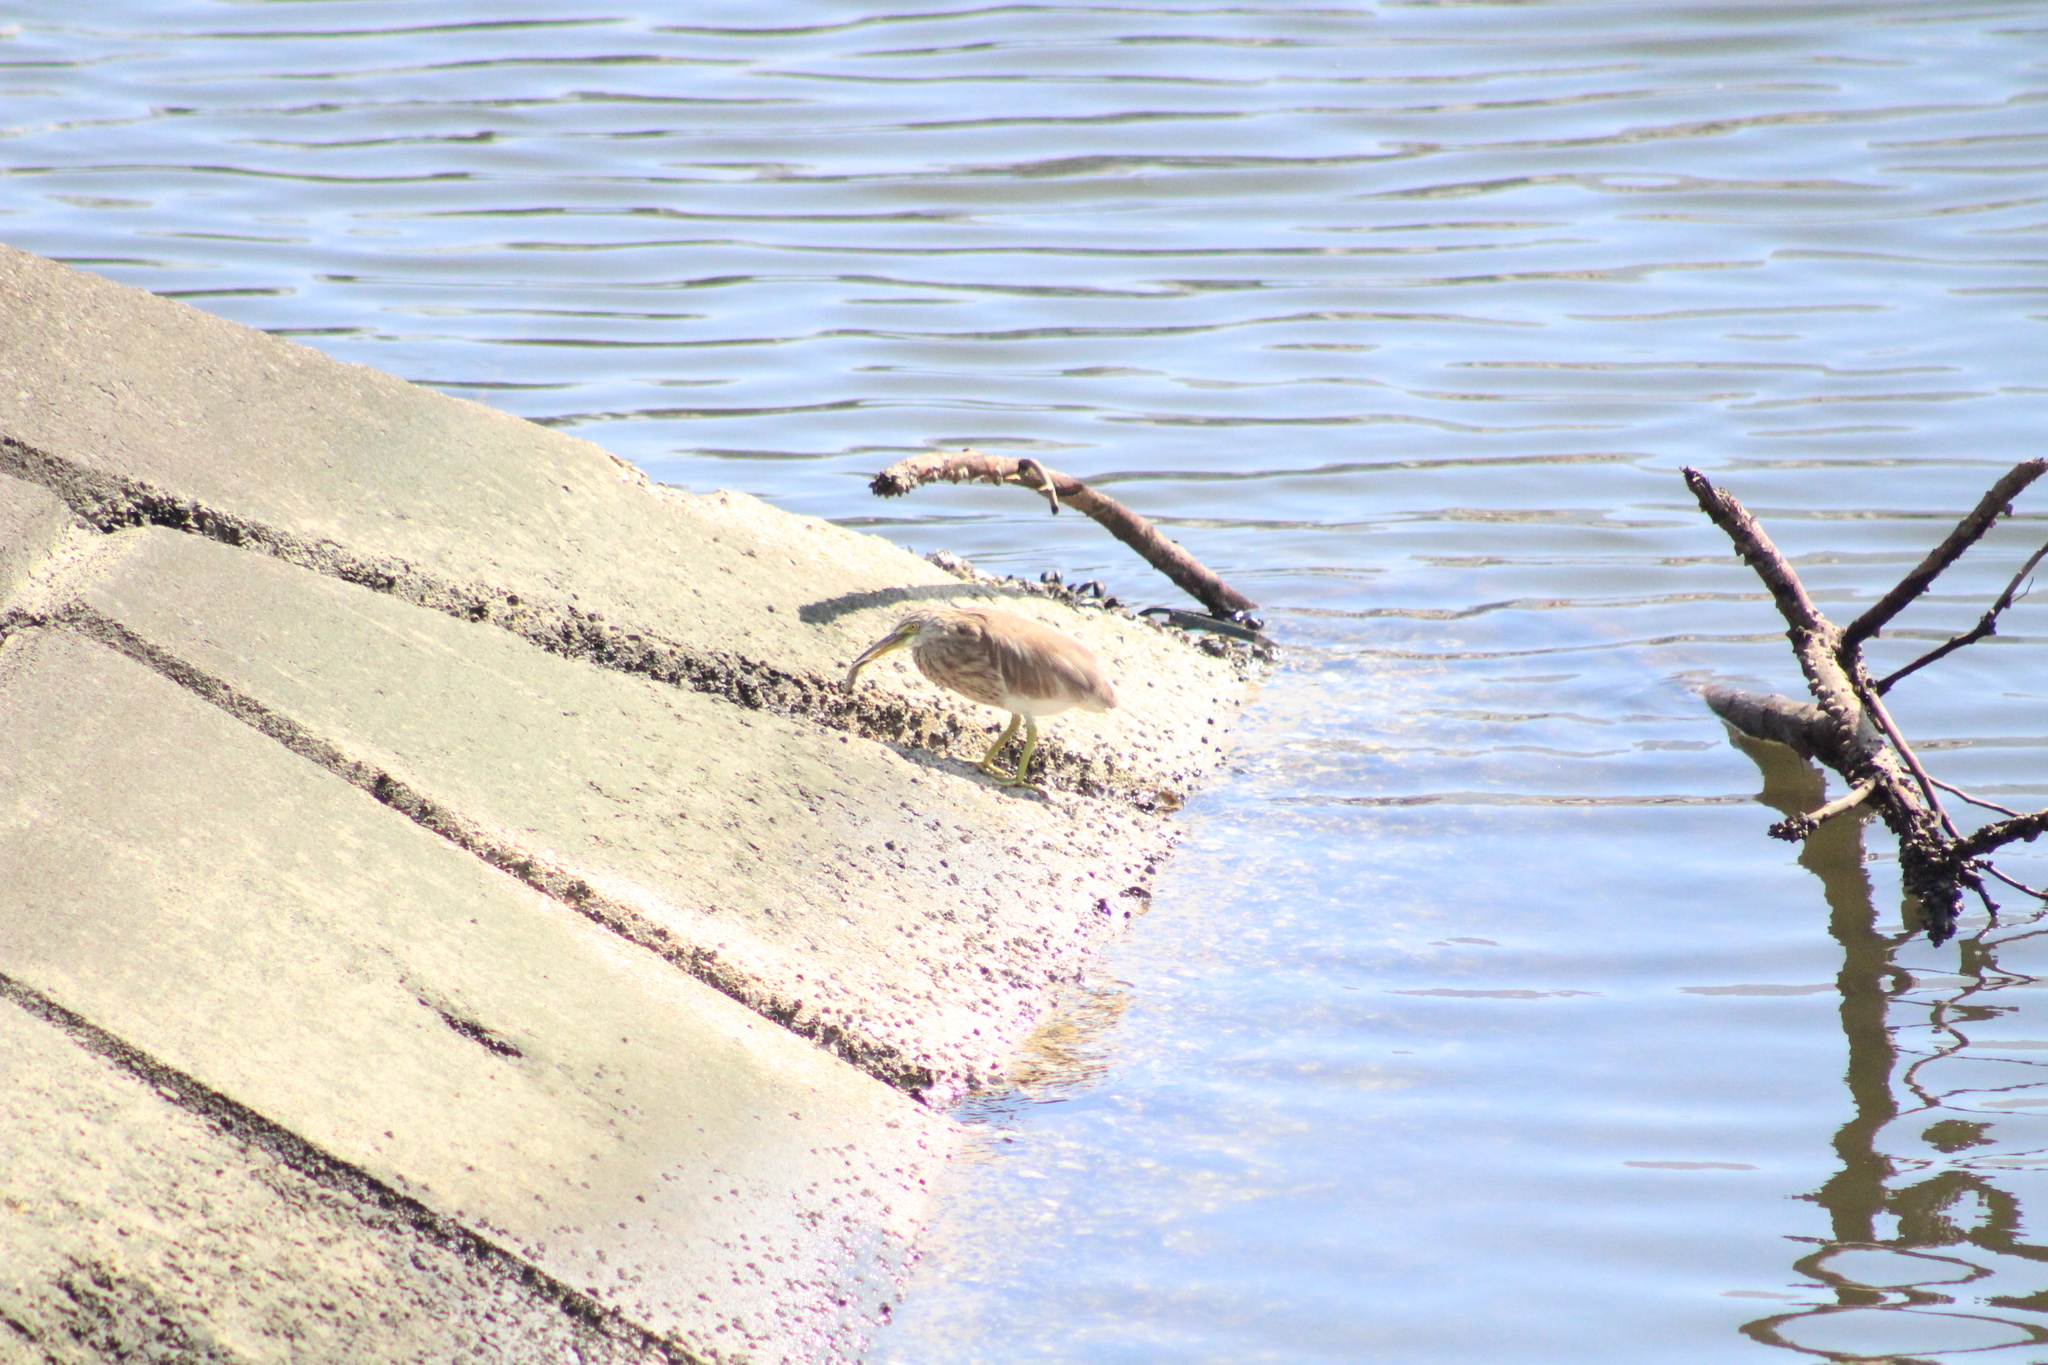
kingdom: Animalia
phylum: Chordata
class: Aves
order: Pelecaniformes
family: Ardeidae
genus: Ardeola
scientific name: Ardeola bacchus
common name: Chinese pond heron
